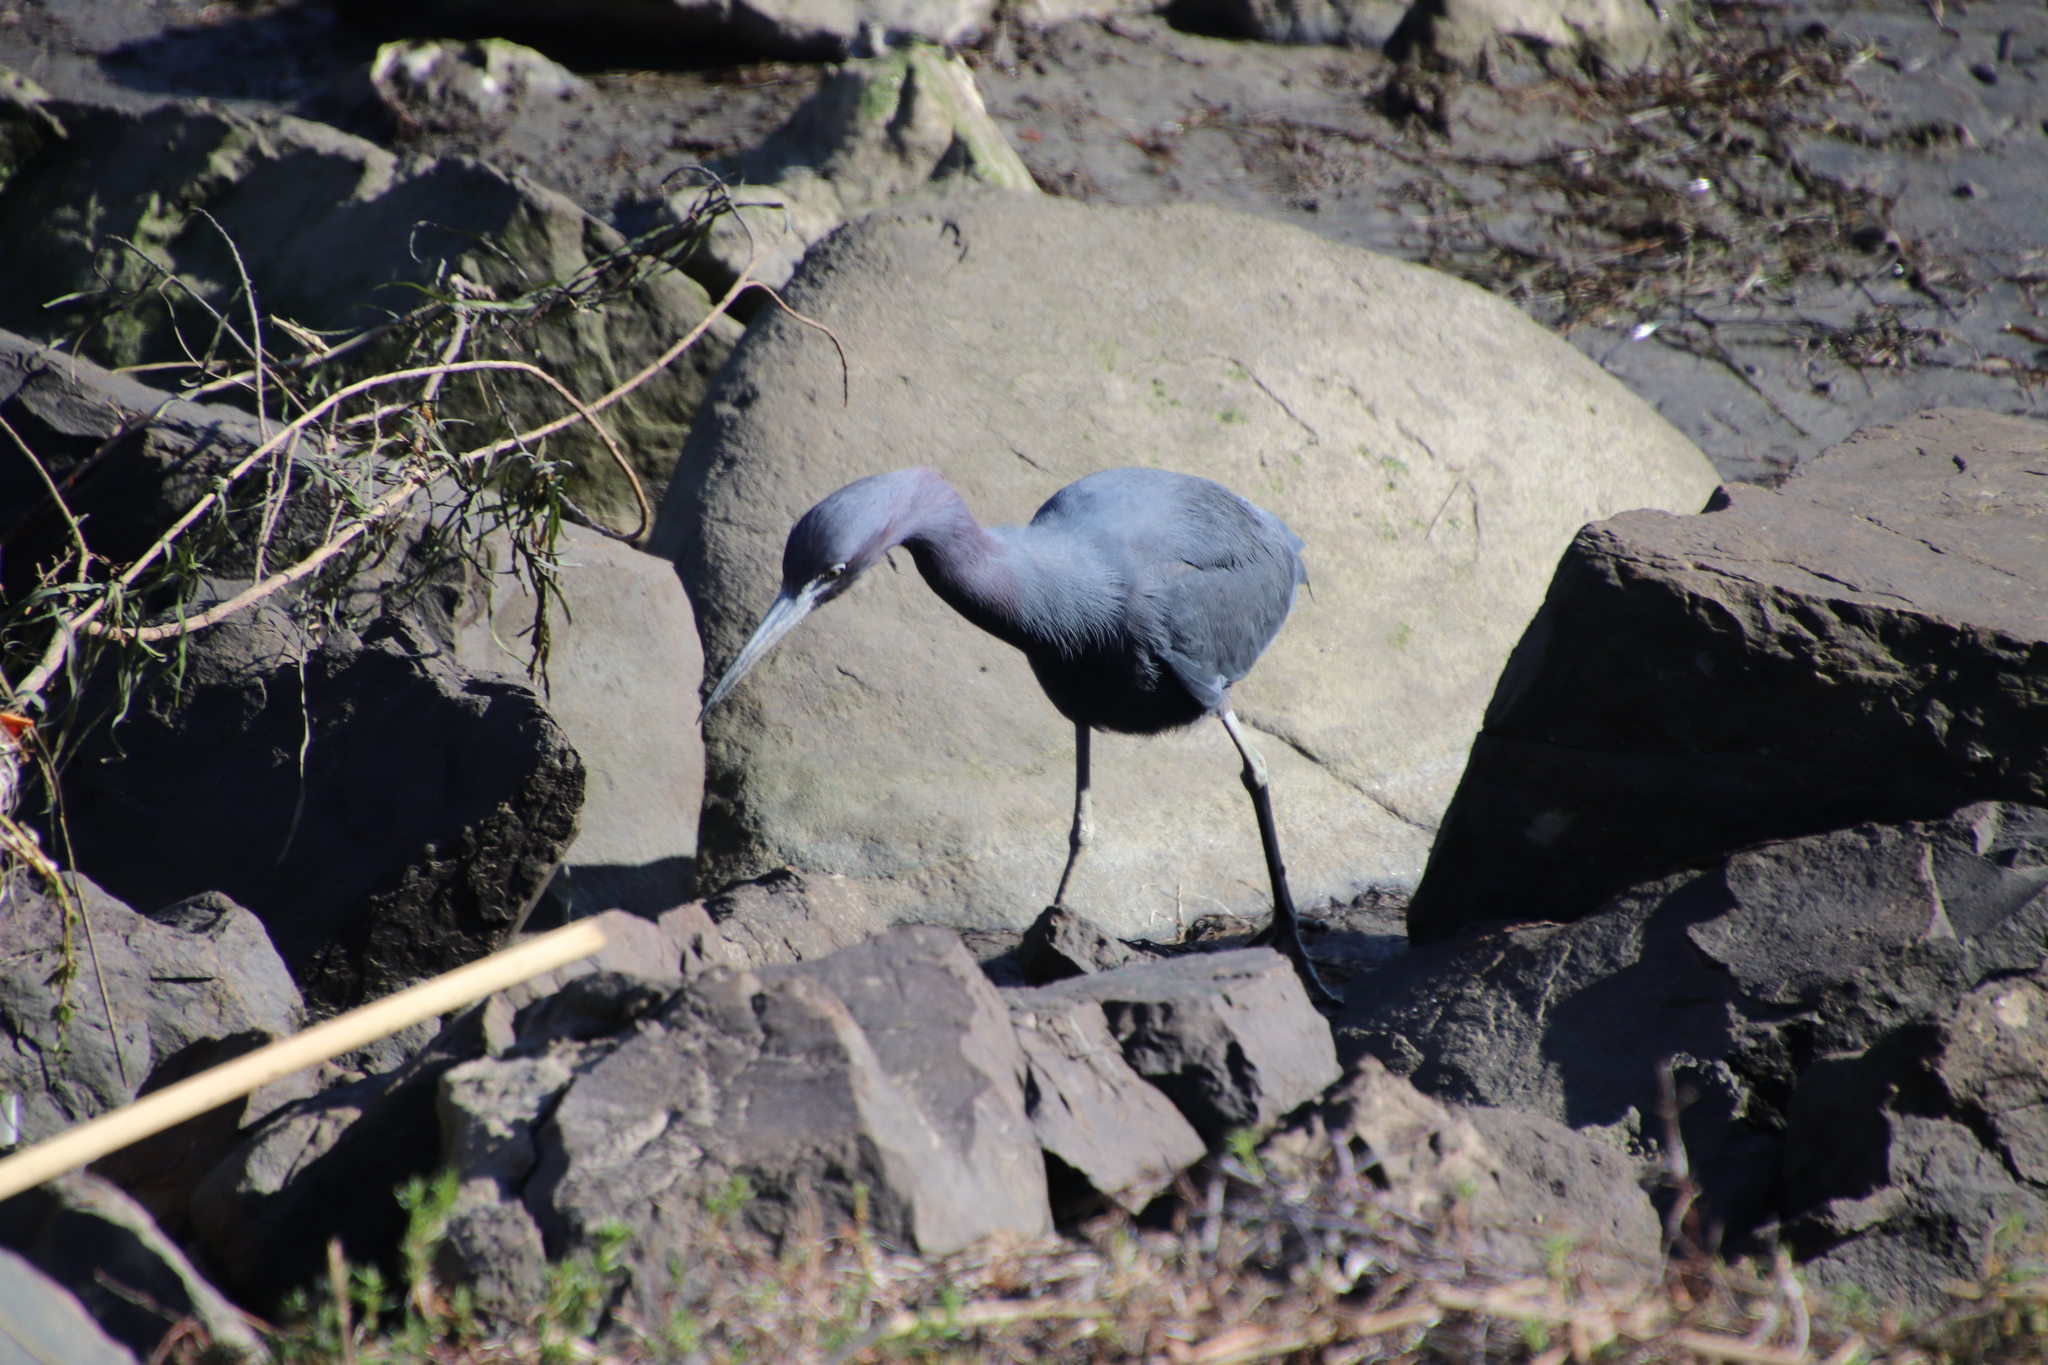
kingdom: Animalia
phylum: Chordata
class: Aves
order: Pelecaniformes
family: Ardeidae
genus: Egretta
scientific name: Egretta caerulea
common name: Little blue heron
